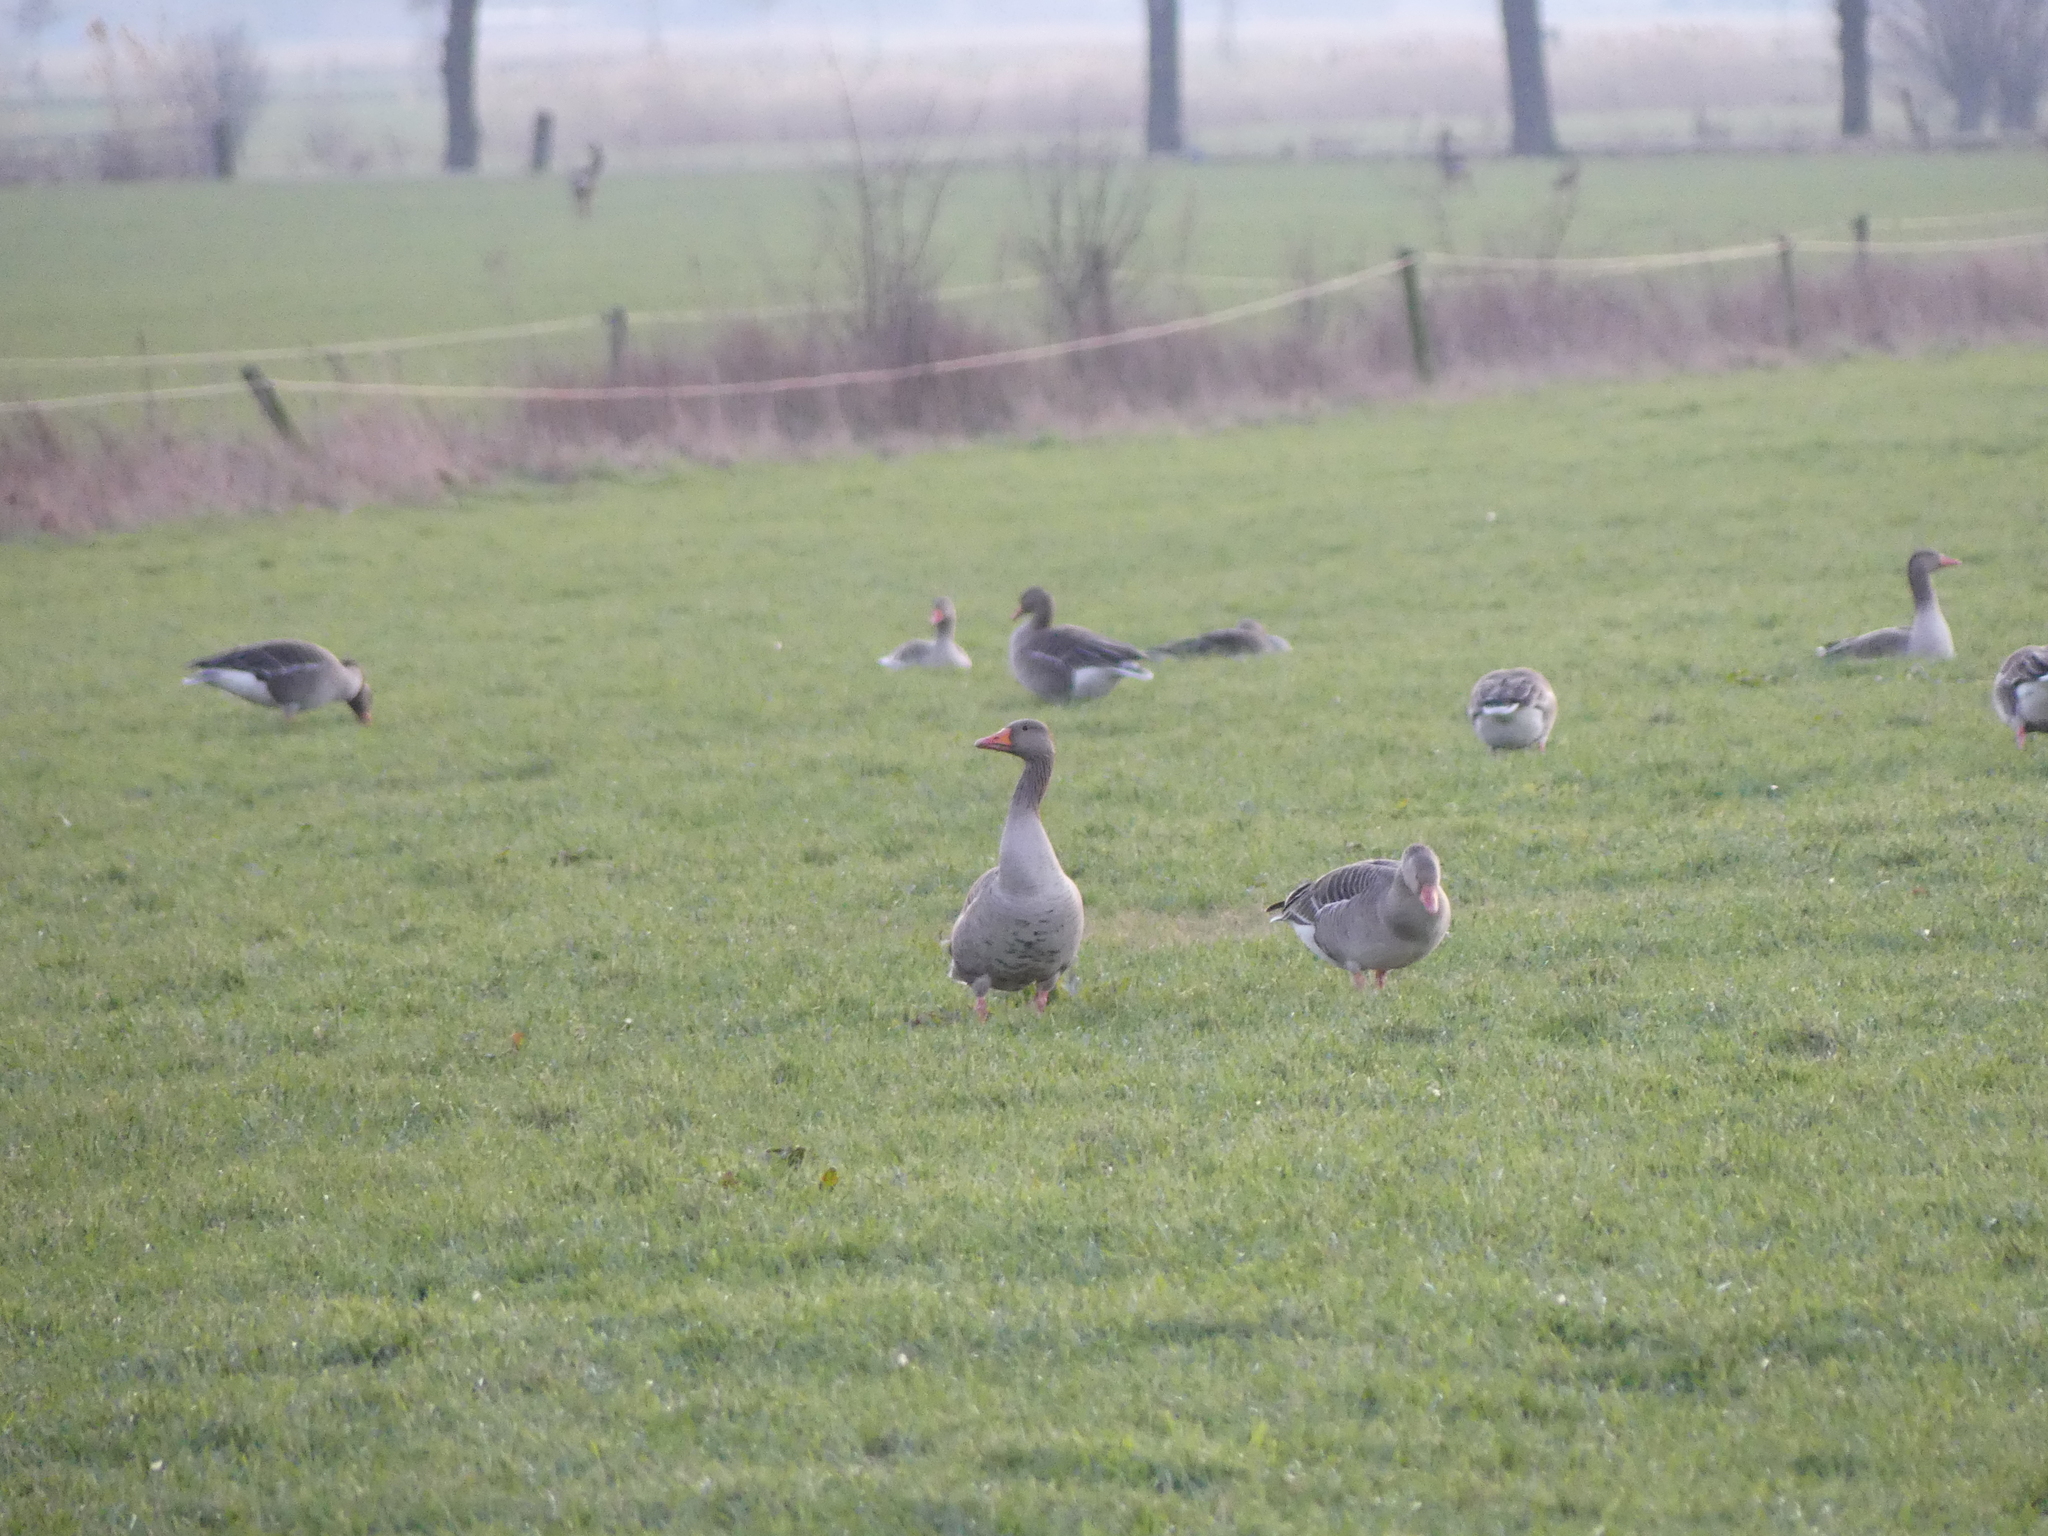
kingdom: Animalia
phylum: Chordata
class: Aves
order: Anseriformes
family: Anatidae
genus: Anser
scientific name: Anser anser
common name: Greylag goose
